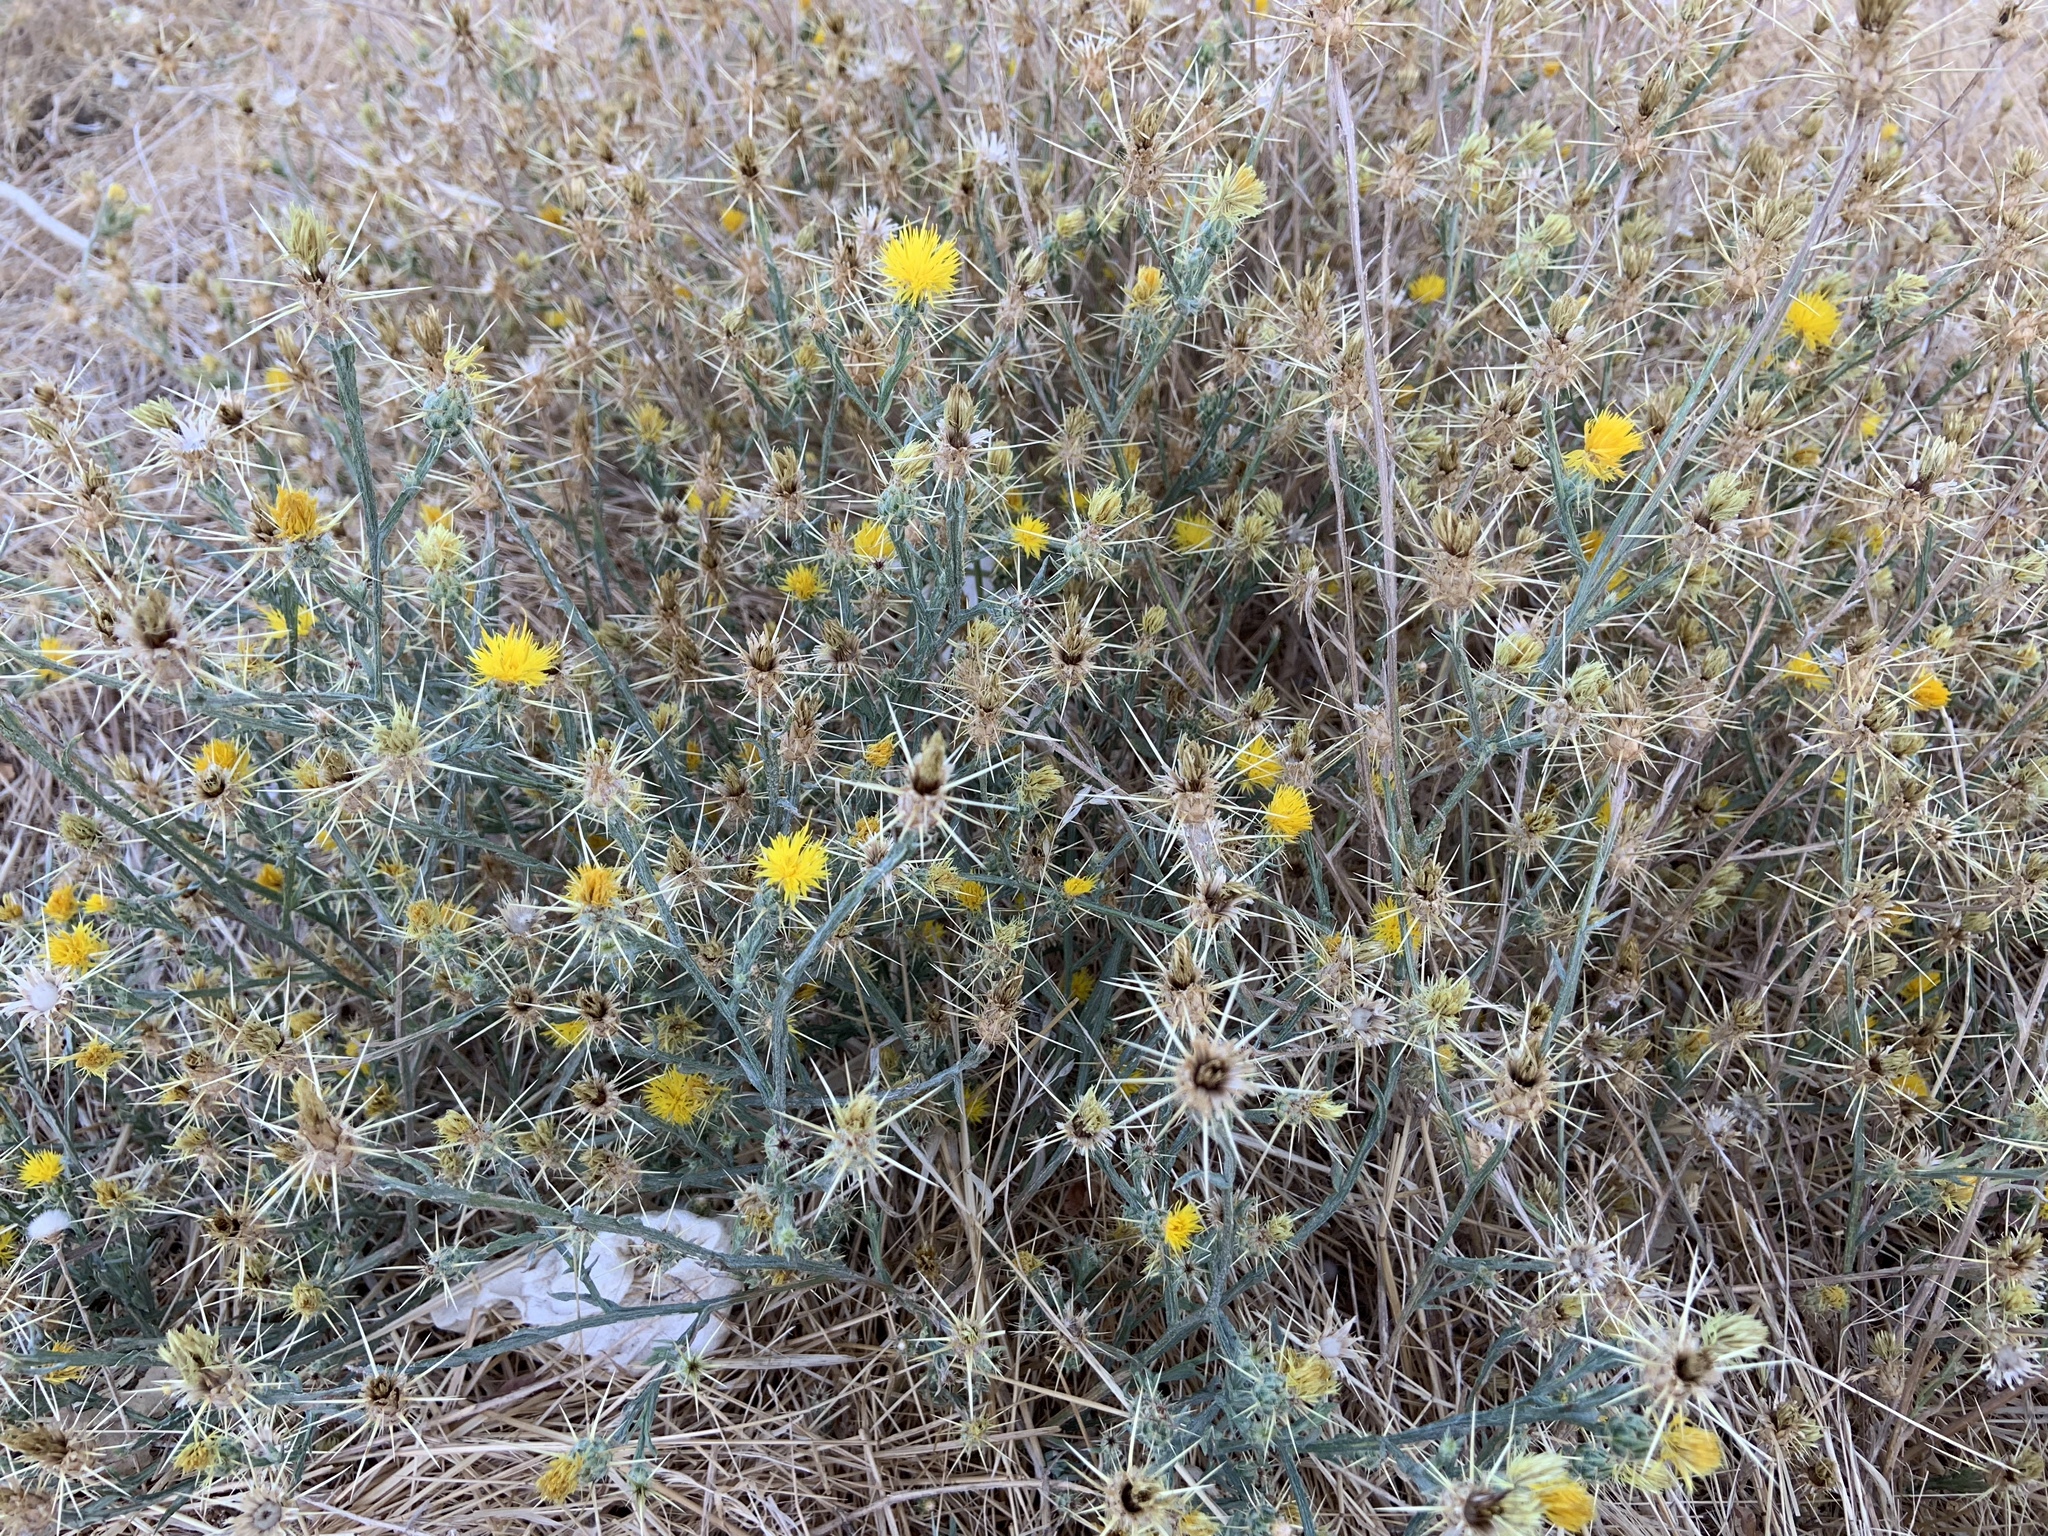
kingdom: Plantae
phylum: Tracheophyta
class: Magnoliopsida
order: Asterales
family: Asteraceae
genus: Centaurea
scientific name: Centaurea solstitialis
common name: Yellow star-thistle
